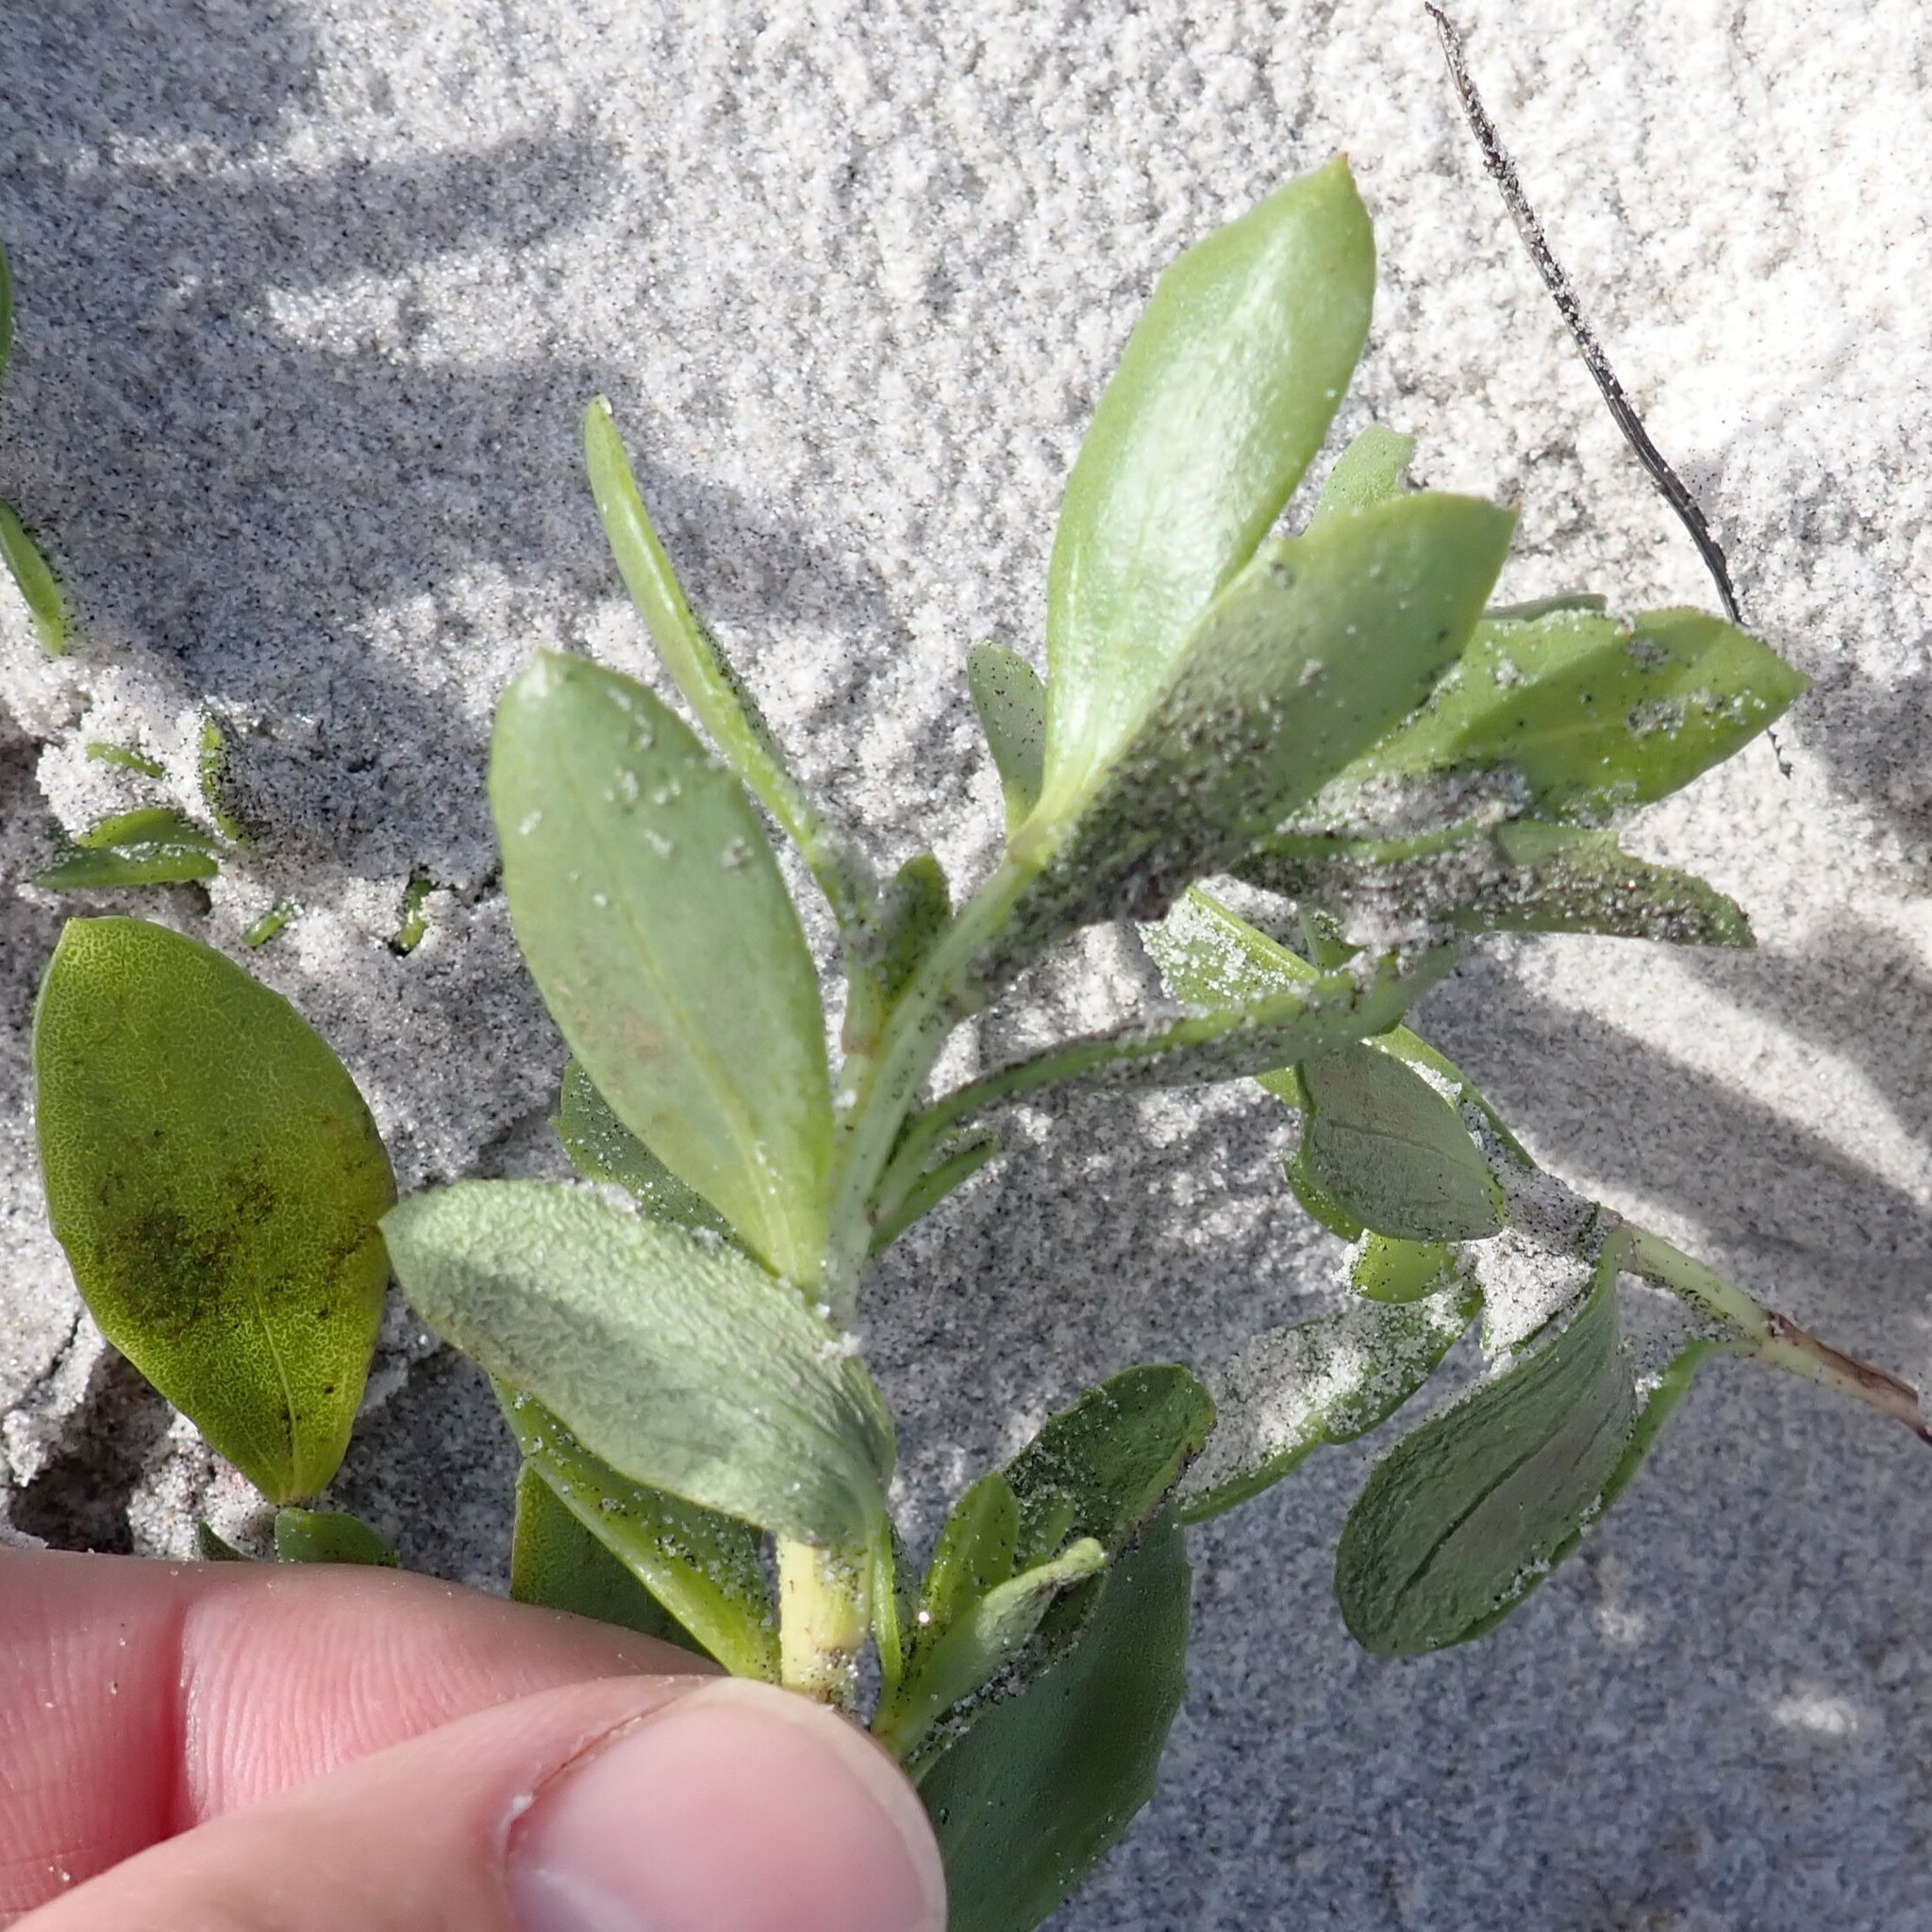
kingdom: Plantae
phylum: Tracheophyta
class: Magnoliopsida
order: Asterales
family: Asteraceae
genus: Iva
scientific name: Iva imbricata
